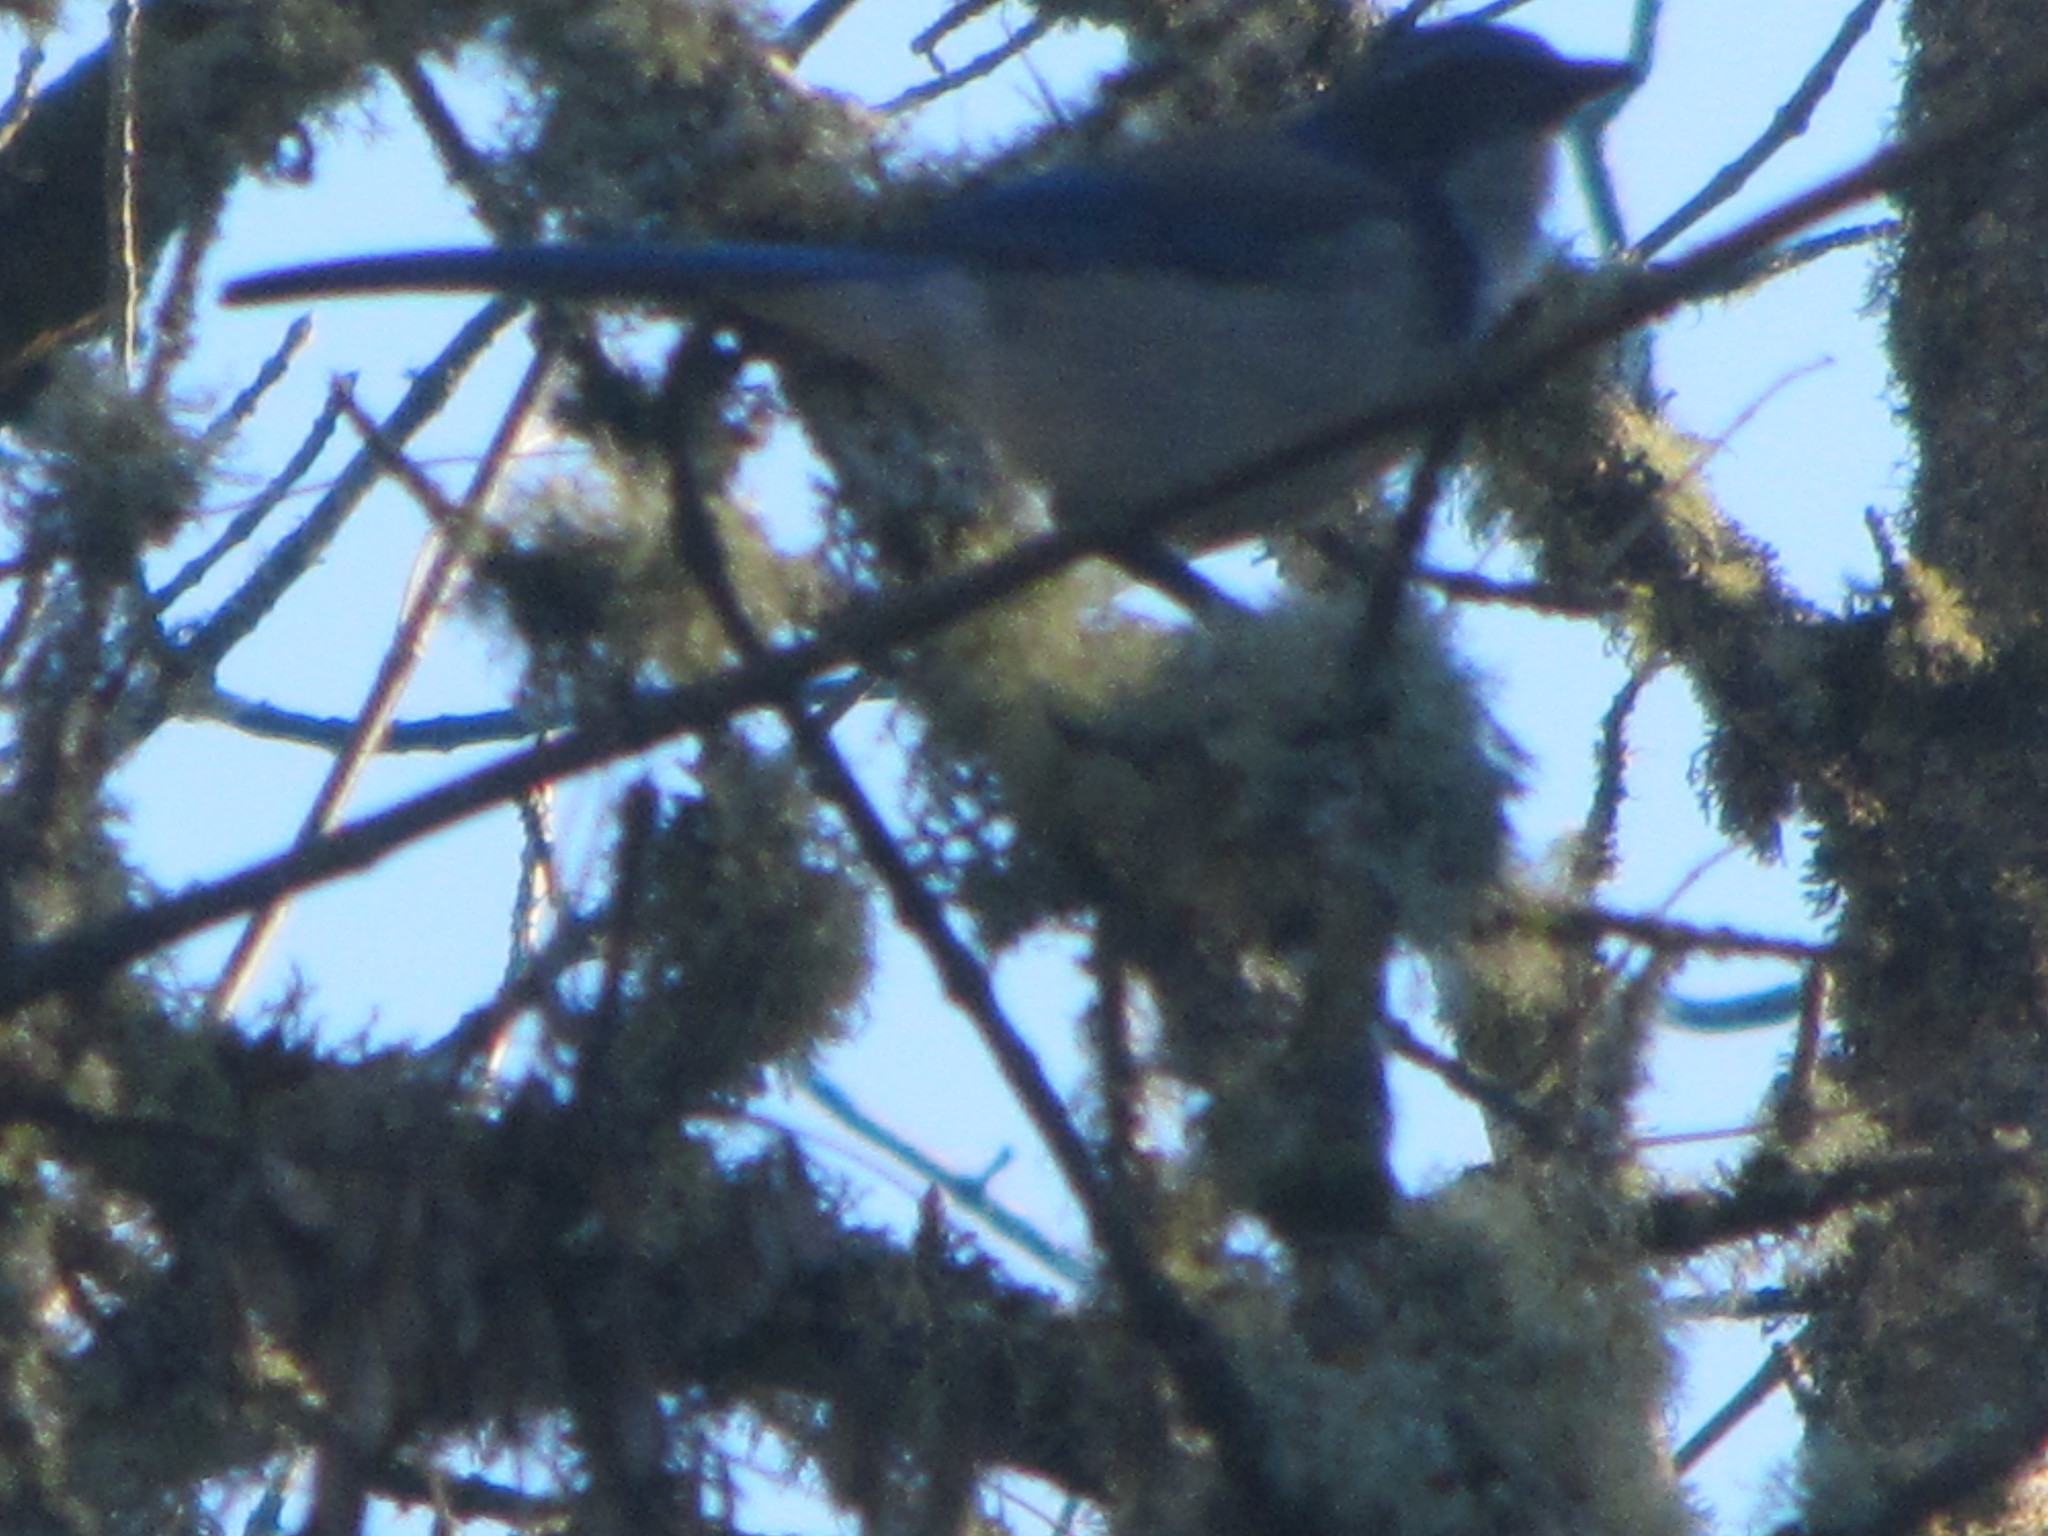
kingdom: Animalia
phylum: Chordata
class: Aves
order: Passeriformes
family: Corvidae
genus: Aphelocoma
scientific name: Aphelocoma californica
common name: California scrub-jay
